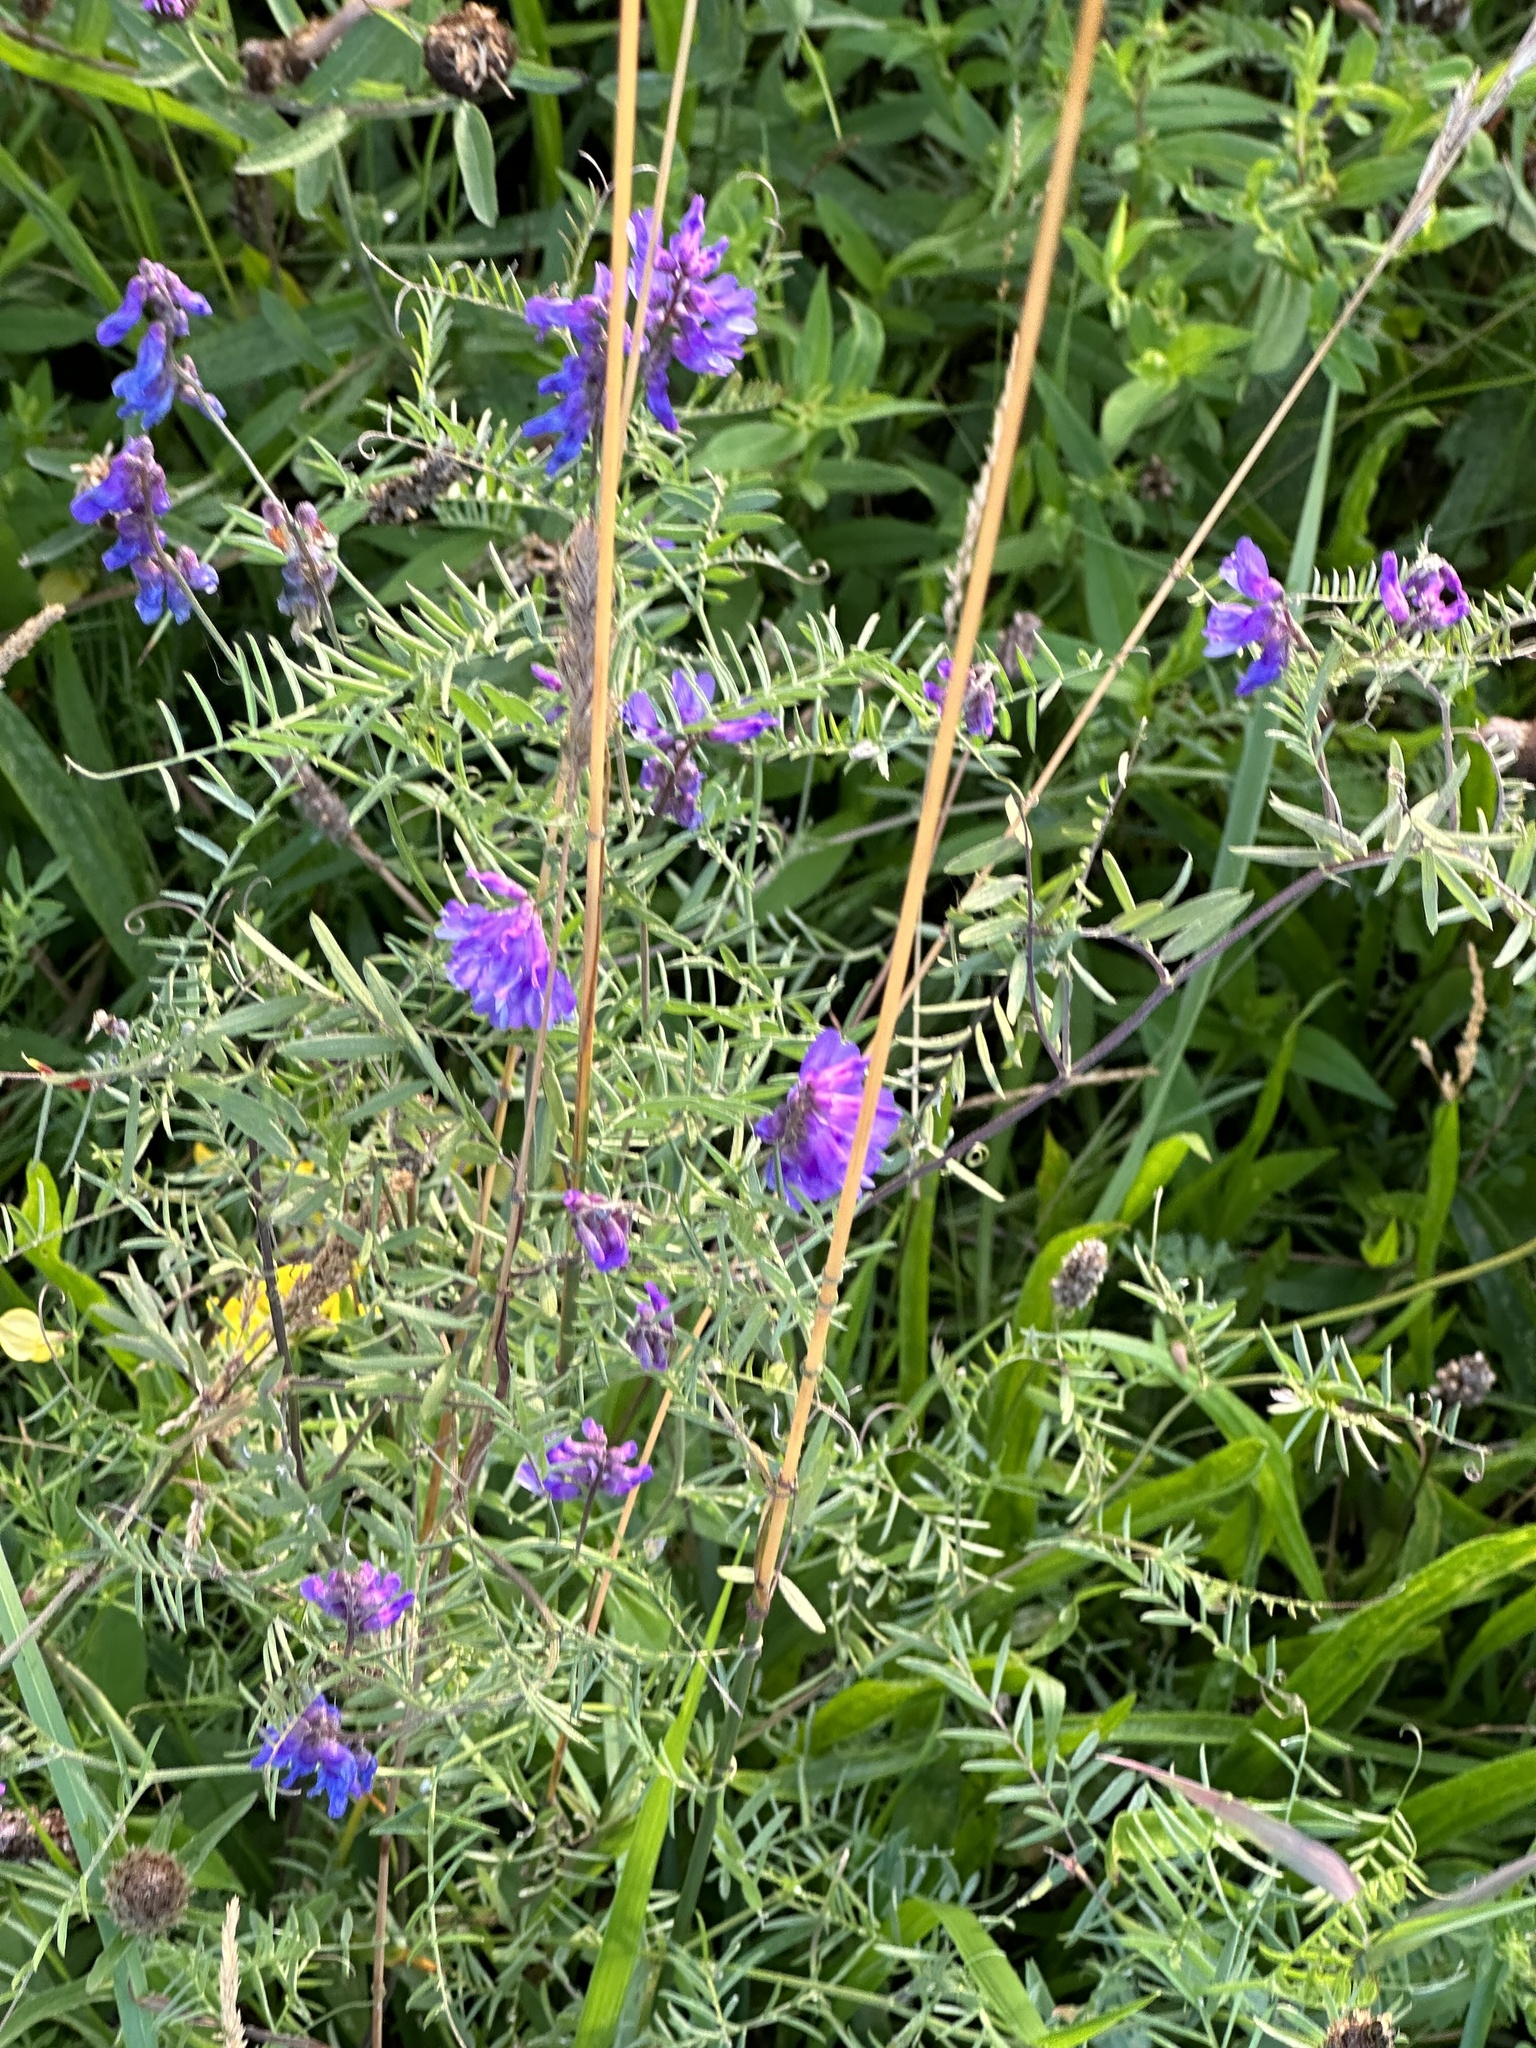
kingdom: Plantae
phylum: Tracheophyta
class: Magnoliopsida
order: Fabales
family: Fabaceae
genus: Vicia
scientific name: Vicia cracca
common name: Bird vetch
